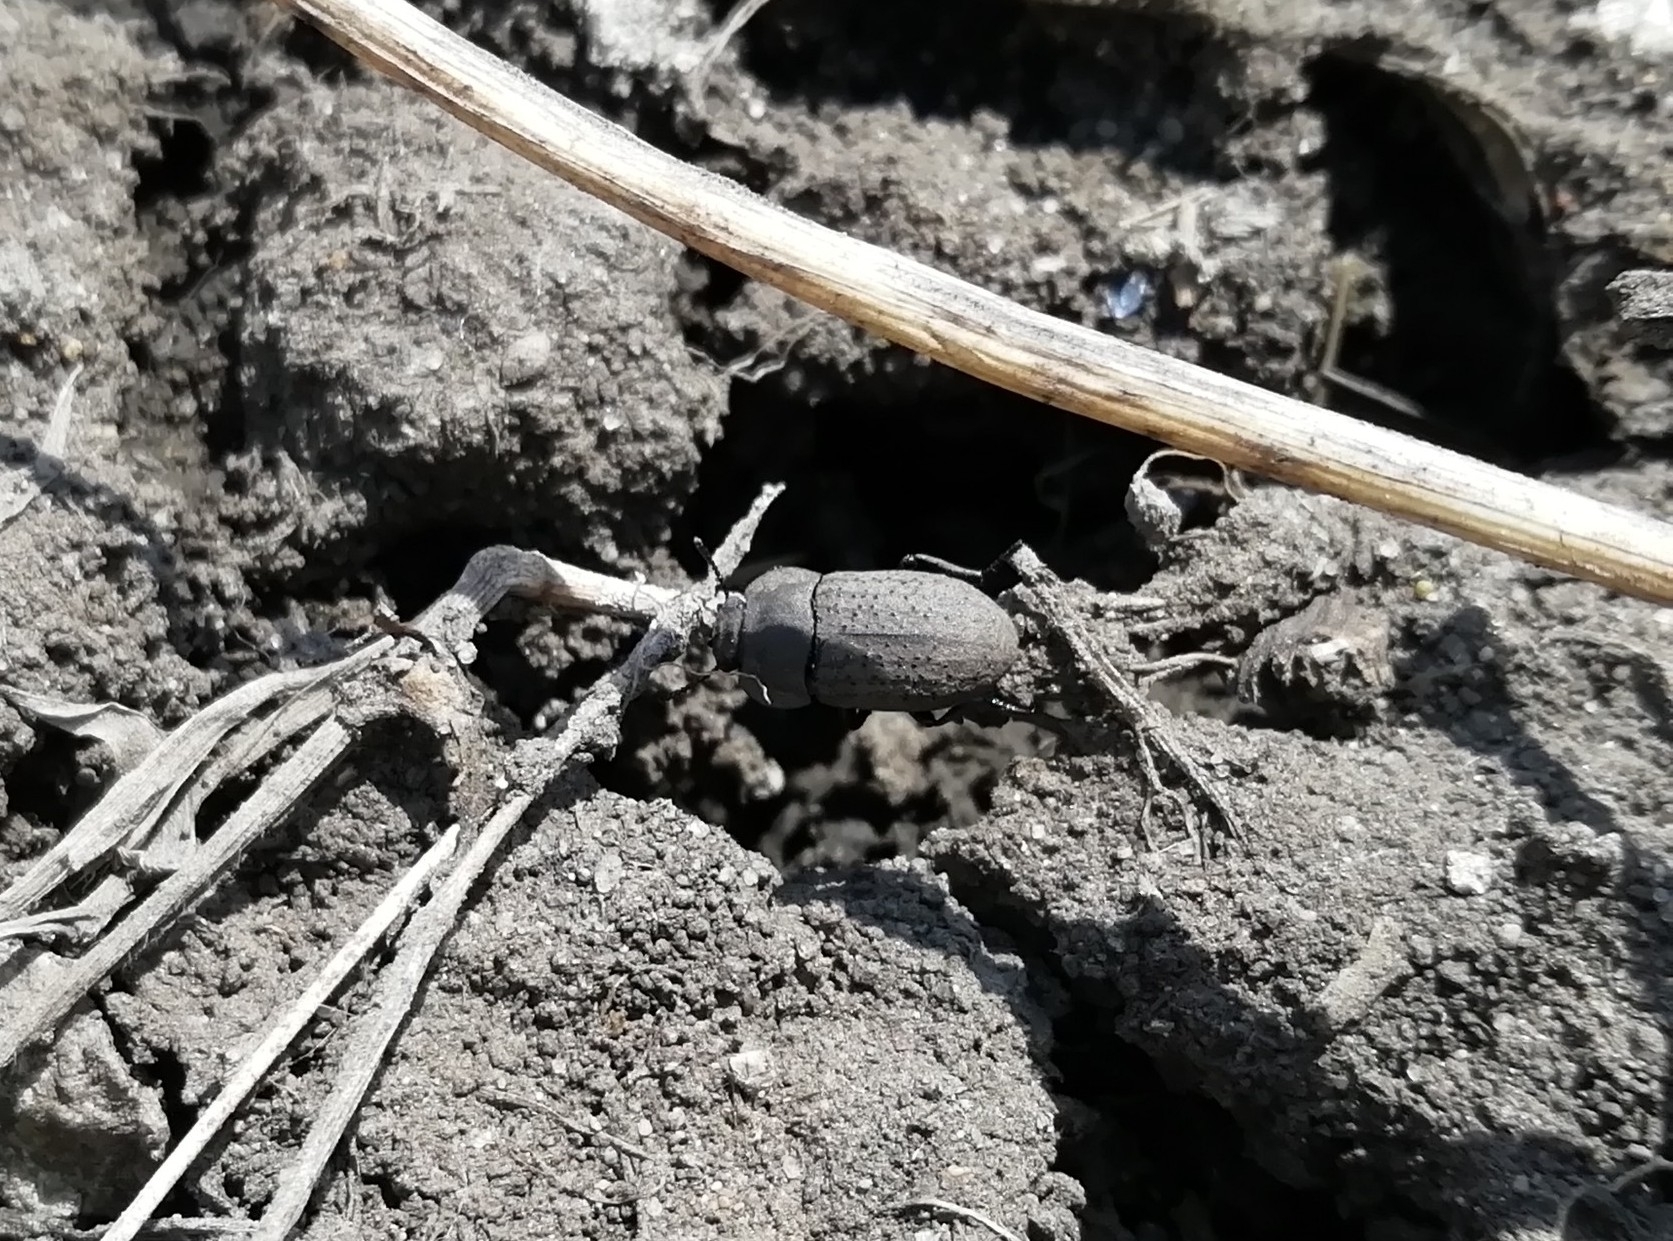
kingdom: Animalia
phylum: Arthropoda
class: Insecta
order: Coleoptera
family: Tenebrionidae
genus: Opatrum
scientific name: Opatrum sabulosum
